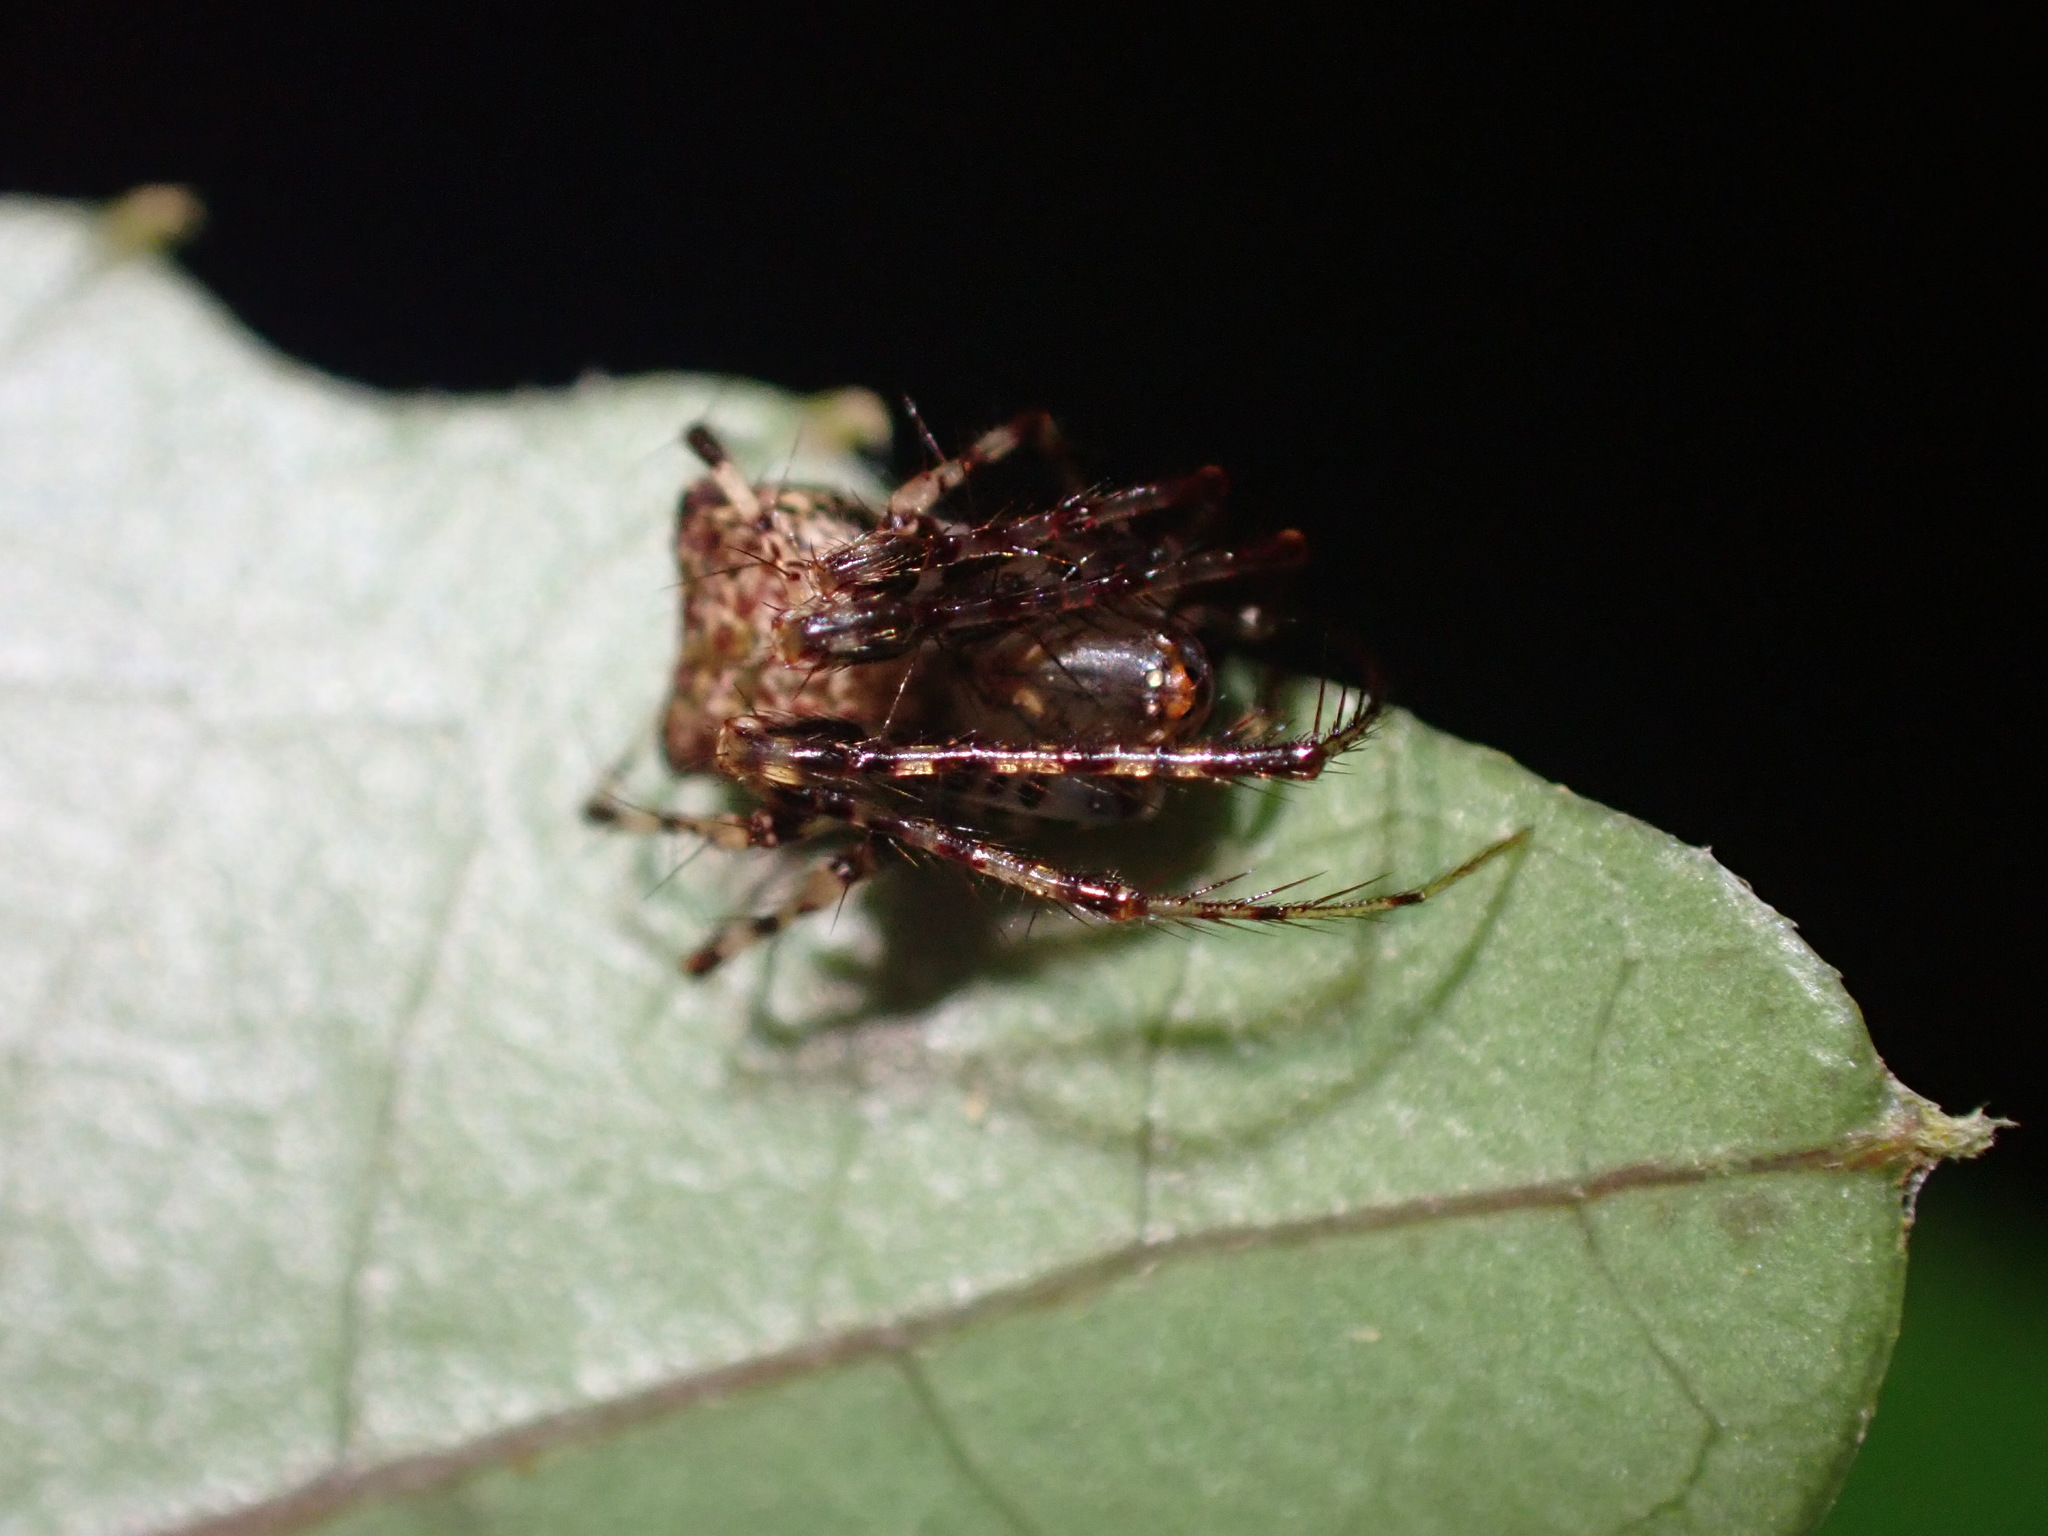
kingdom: Animalia
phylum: Arthropoda
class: Arachnida
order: Araneae
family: Mimetidae
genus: Australomimetus
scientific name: Australomimetus sennio
